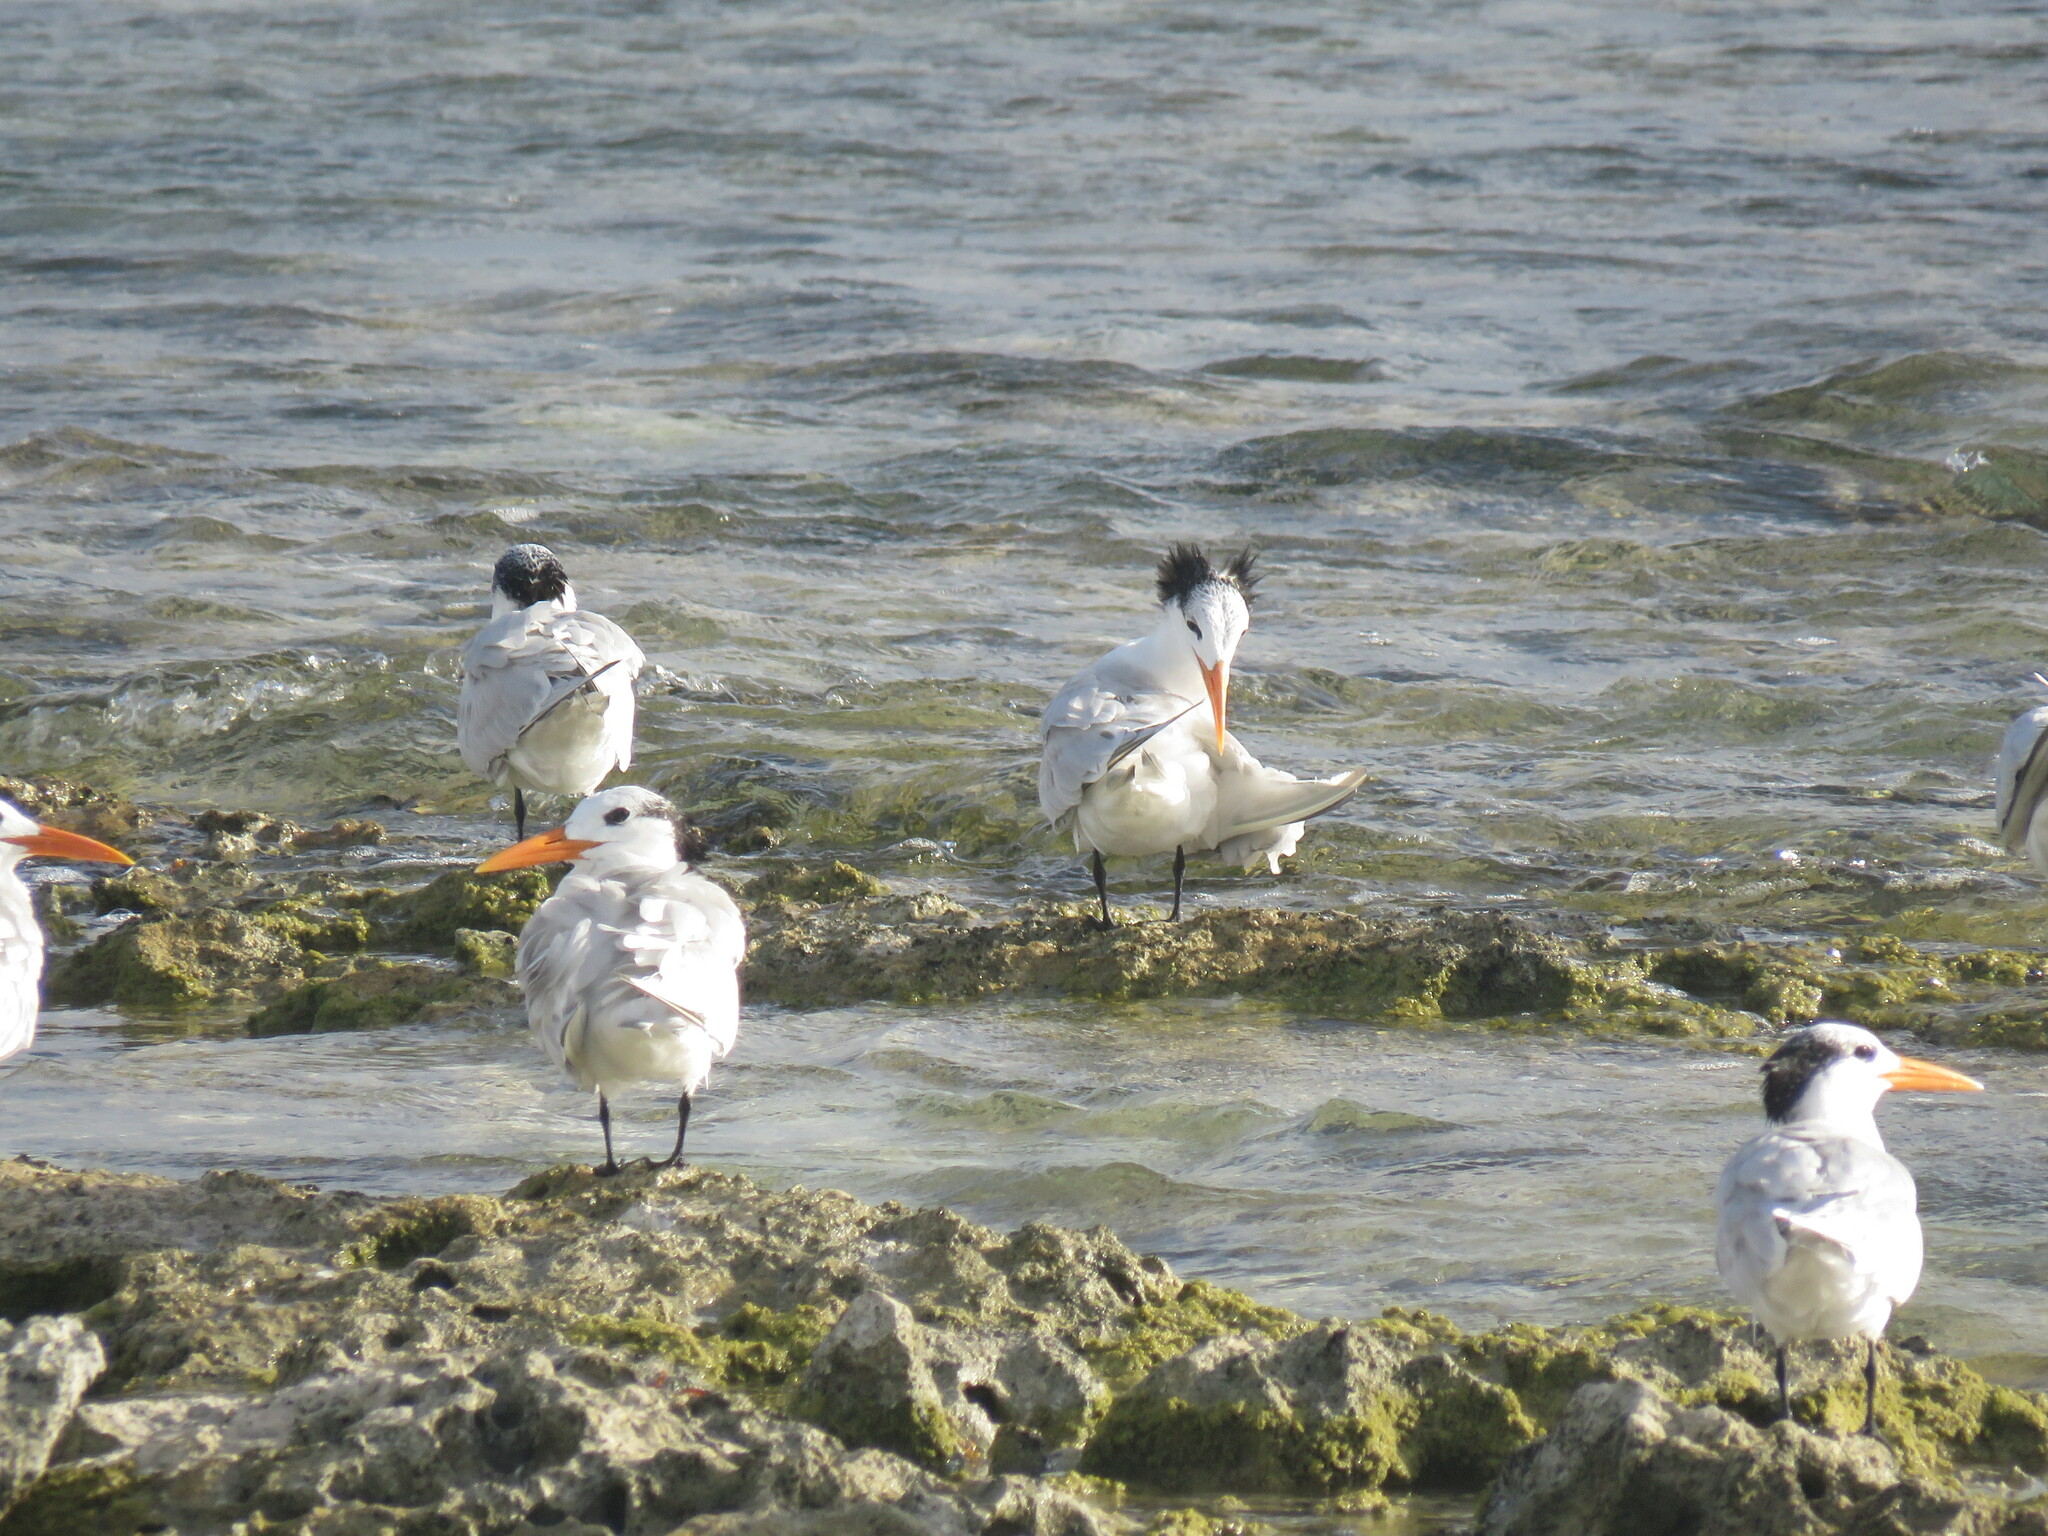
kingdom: Animalia
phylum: Chordata
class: Aves
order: Charadriiformes
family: Laridae
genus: Thalasseus
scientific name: Thalasseus maximus
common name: Royal tern
